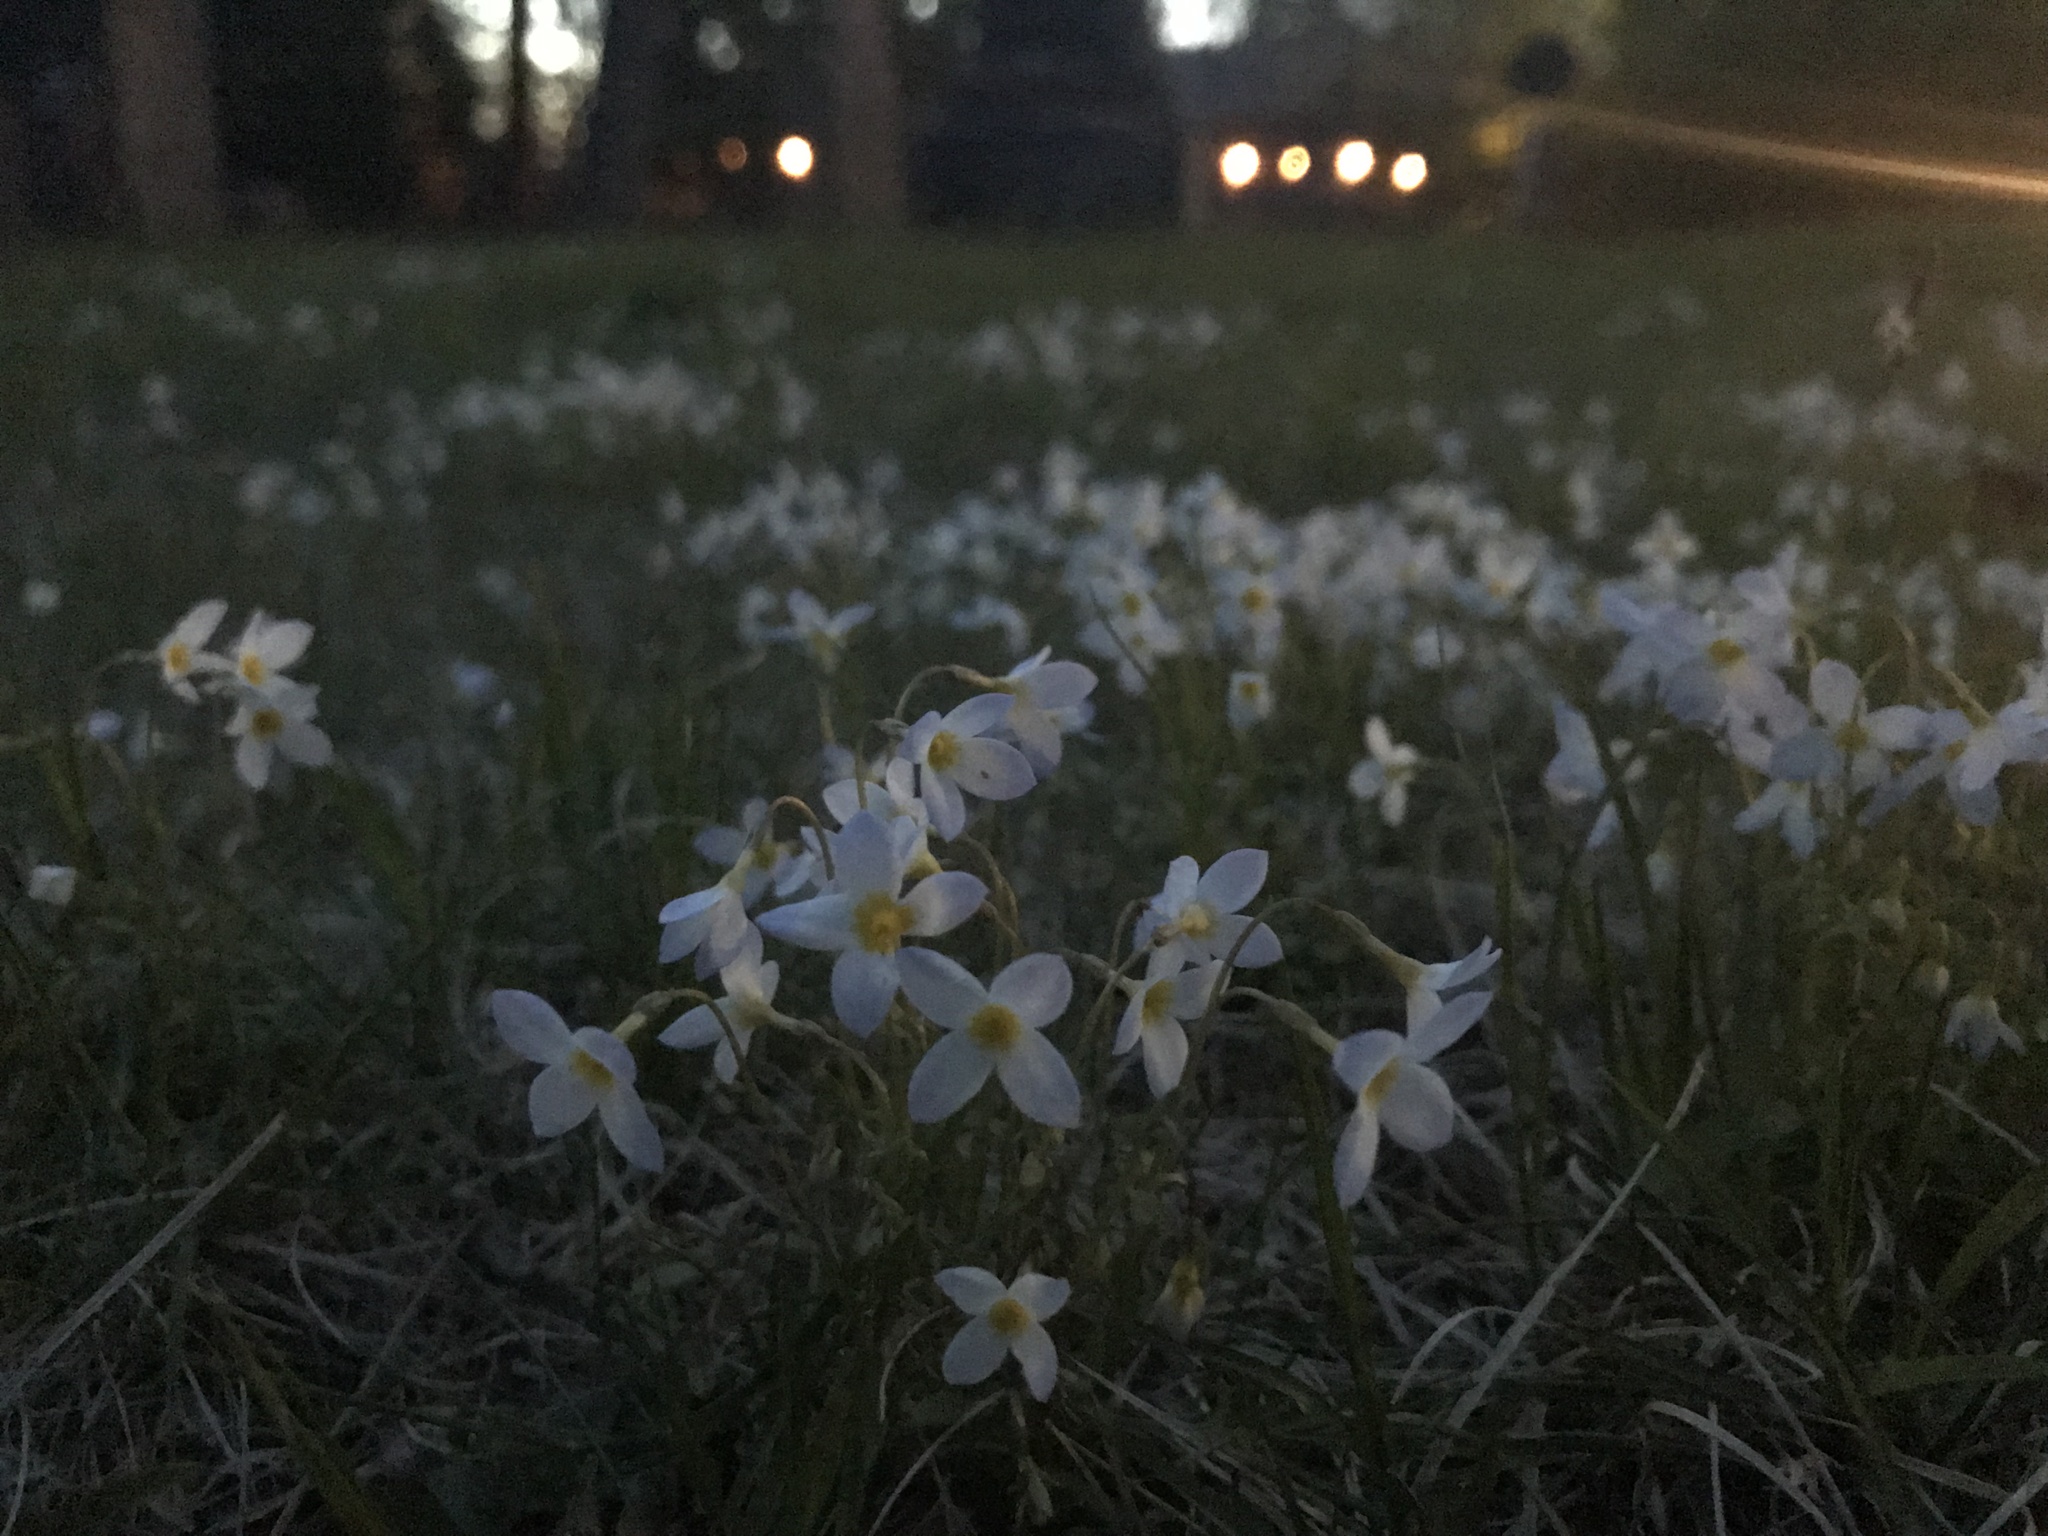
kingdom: Plantae
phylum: Tracheophyta
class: Magnoliopsida
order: Gentianales
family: Rubiaceae
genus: Houstonia
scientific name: Houstonia caerulea
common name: Bluets
